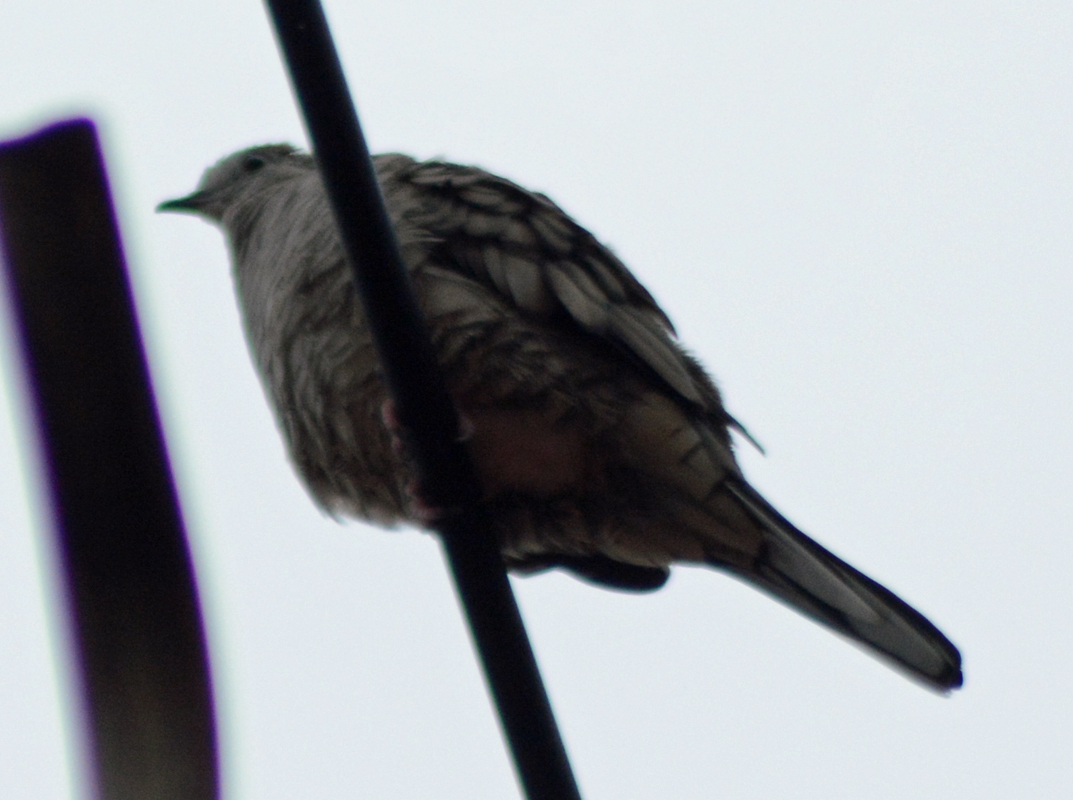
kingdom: Animalia
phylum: Chordata
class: Aves
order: Columbiformes
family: Columbidae
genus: Columbina
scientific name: Columbina inca
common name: Inca dove
